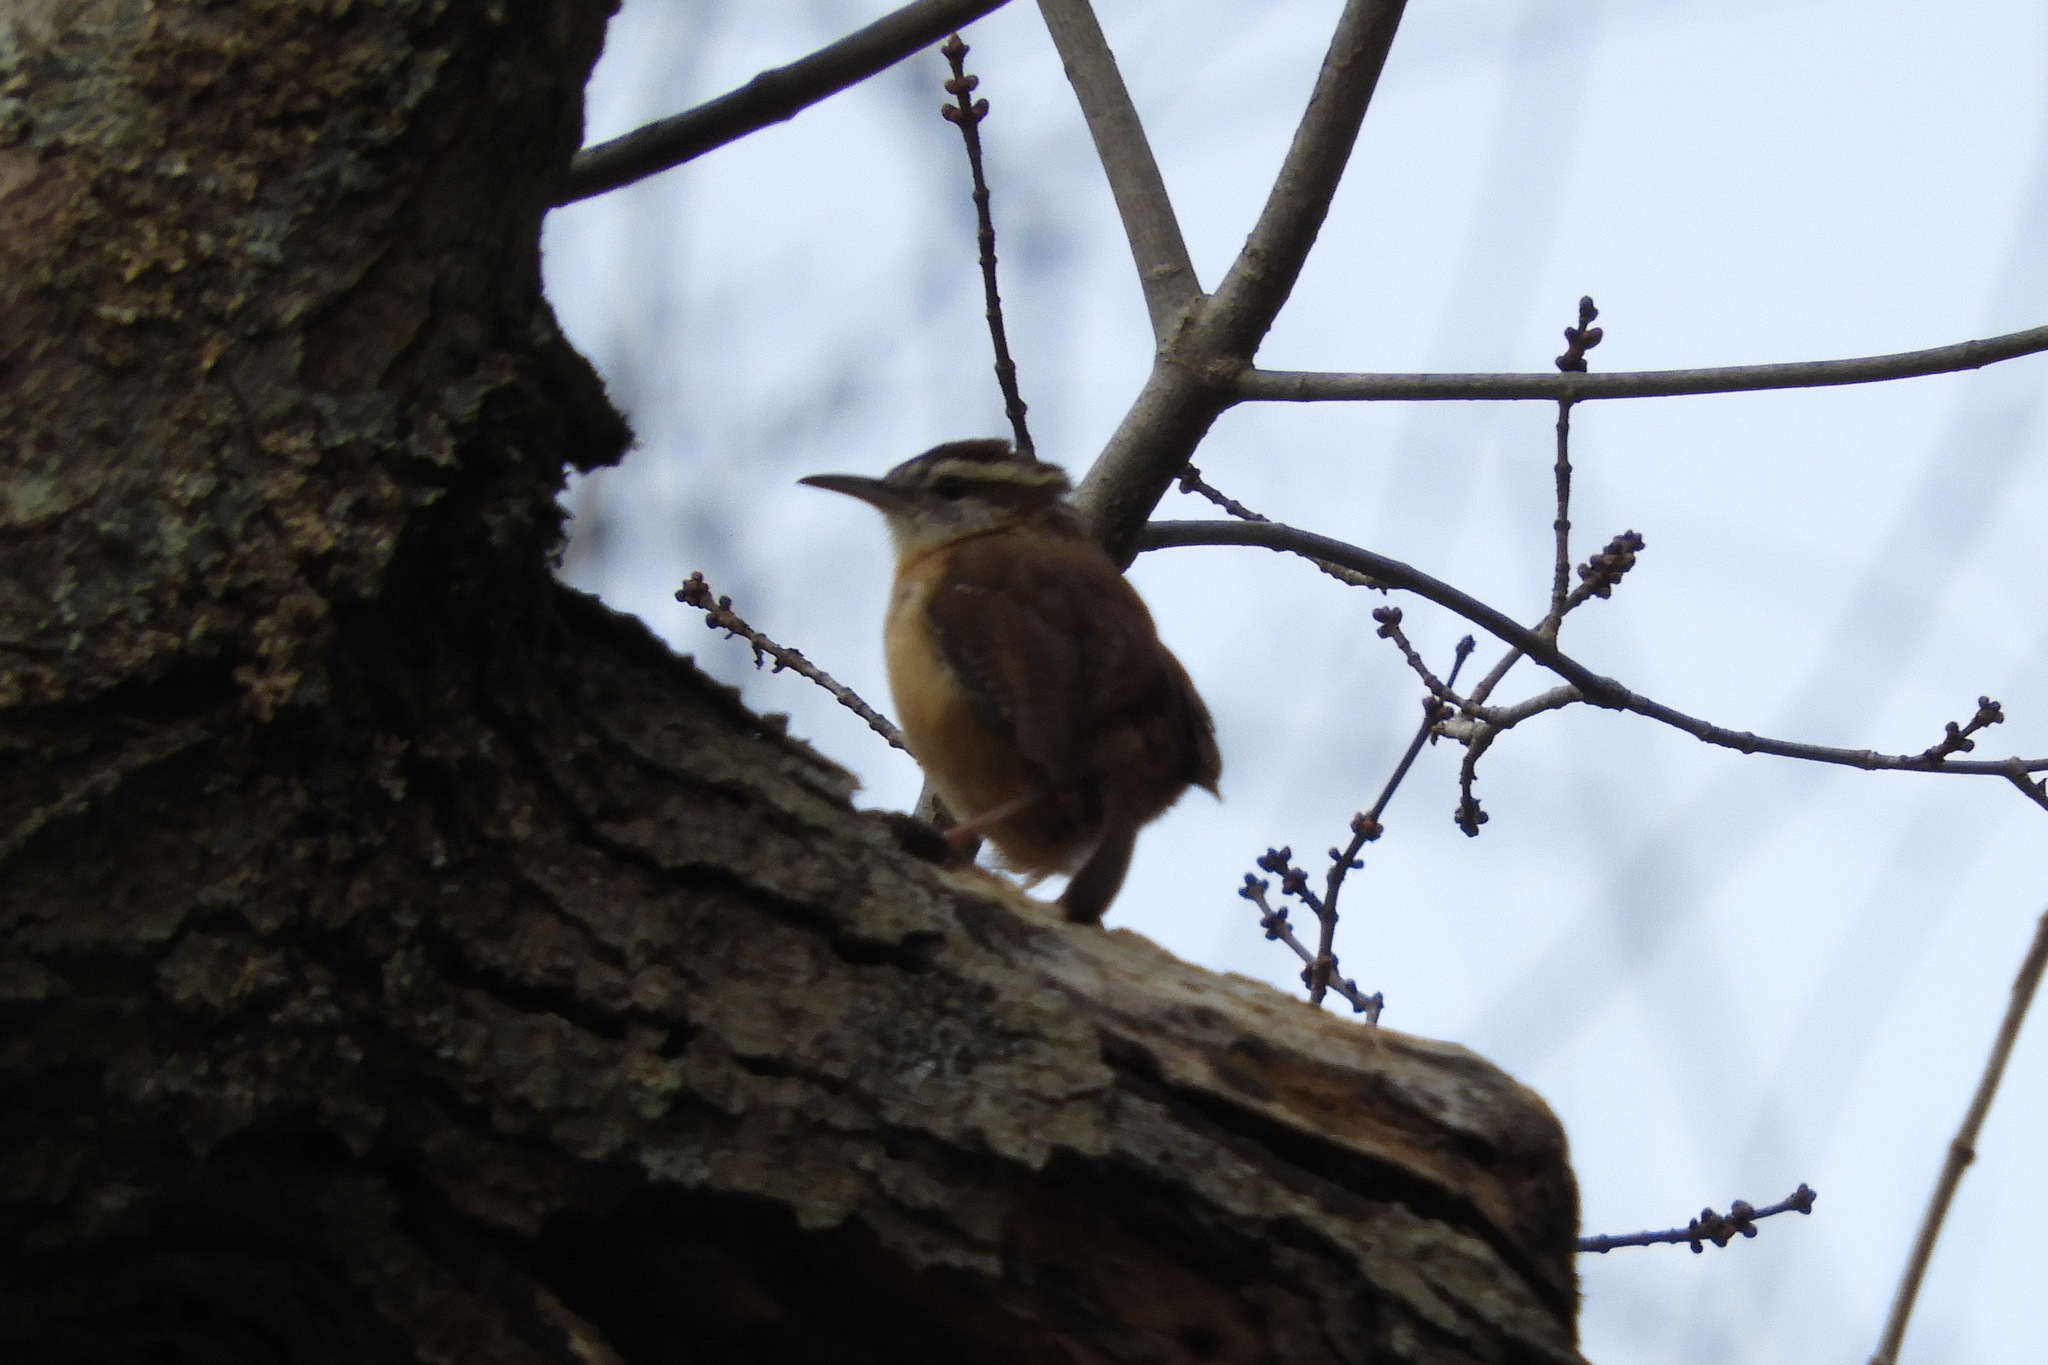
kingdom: Animalia
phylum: Chordata
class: Aves
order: Passeriformes
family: Troglodytidae
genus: Thryothorus
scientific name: Thryothorus ludovicianus
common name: Carolina wren
